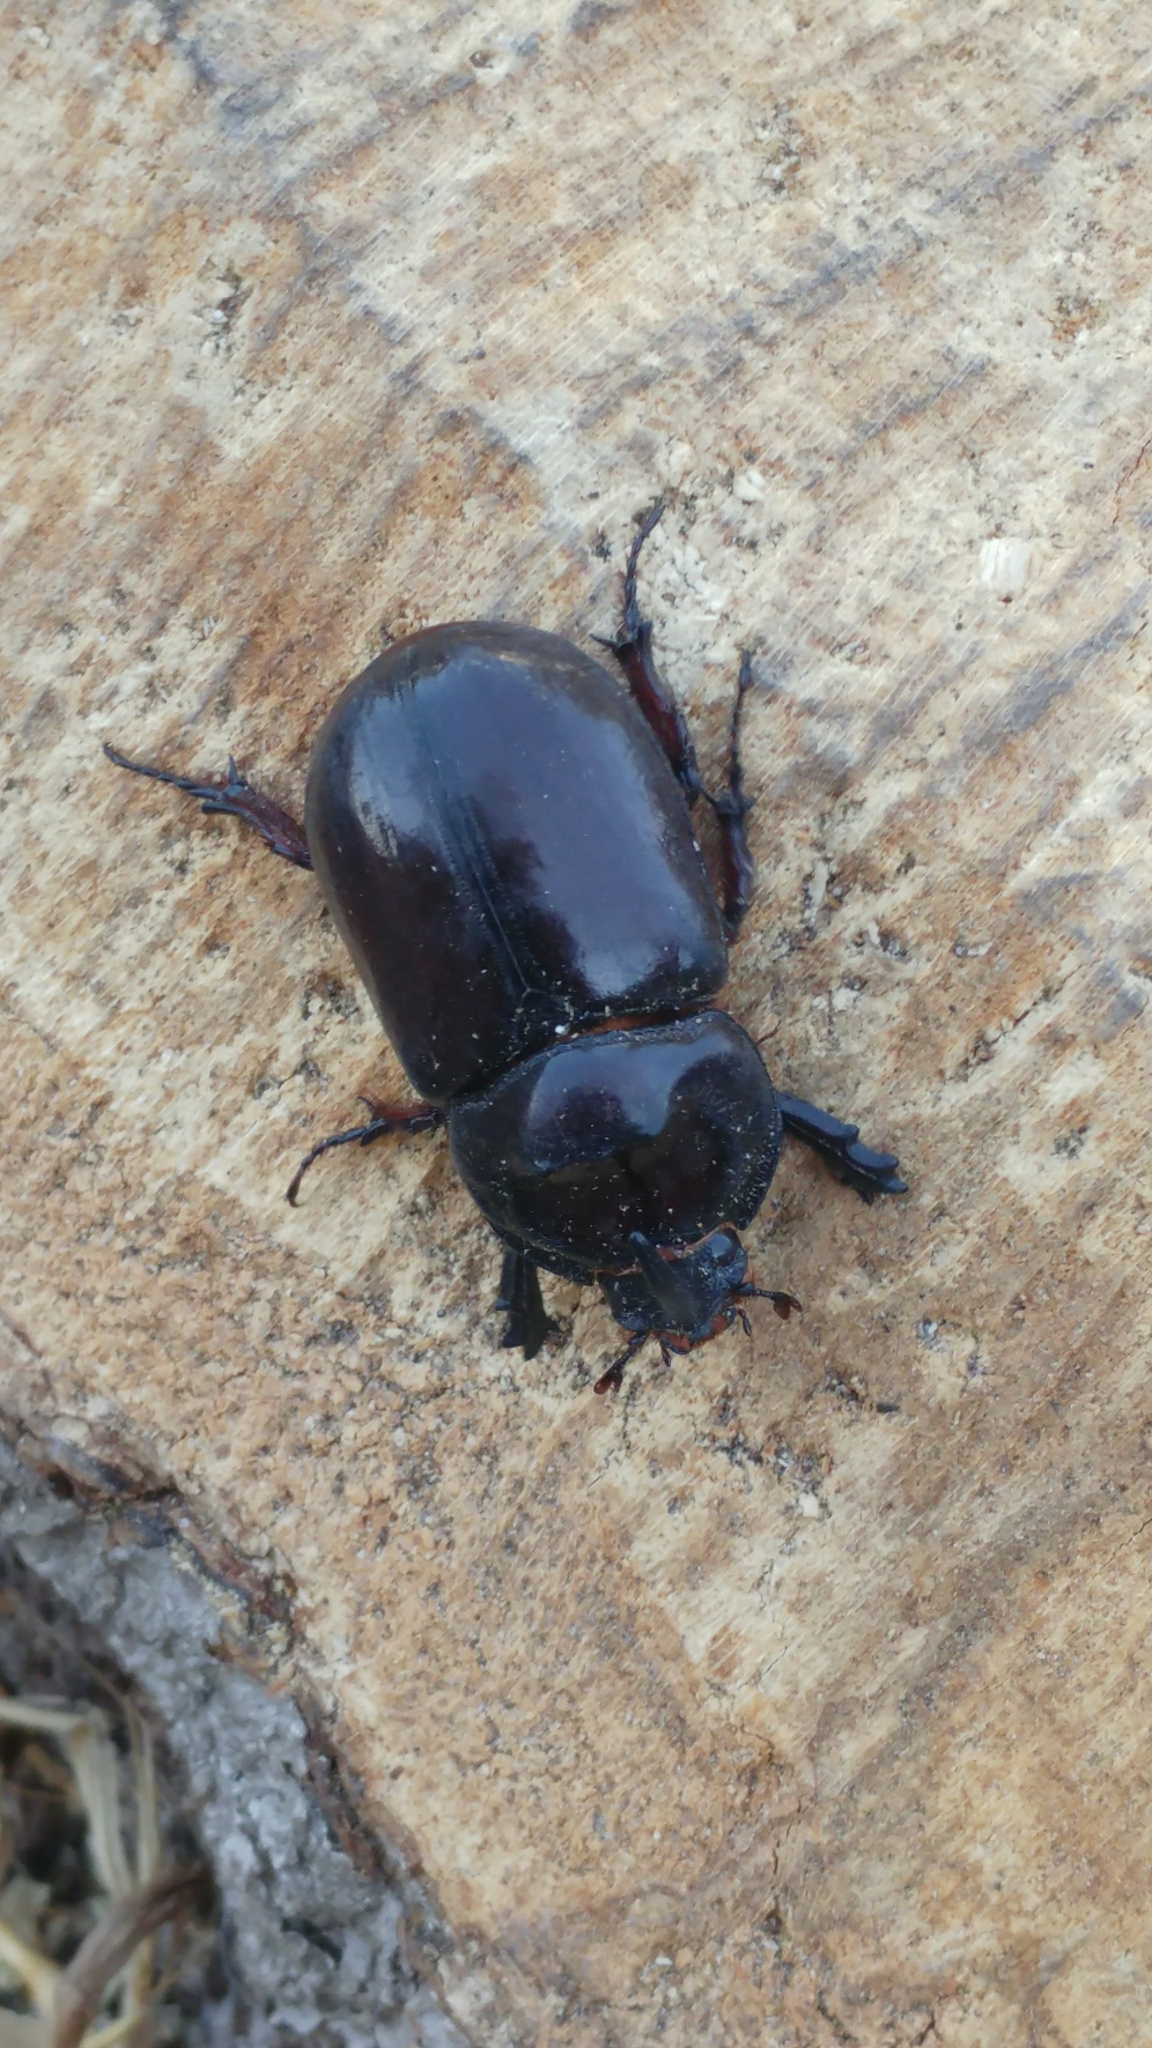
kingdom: Animalia
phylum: Arthropoda
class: Insecta
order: Coleoptera
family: Scarabaeidae
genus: Oryctes
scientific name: Oryctes nasicornis
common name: European rhinoceros beetle
